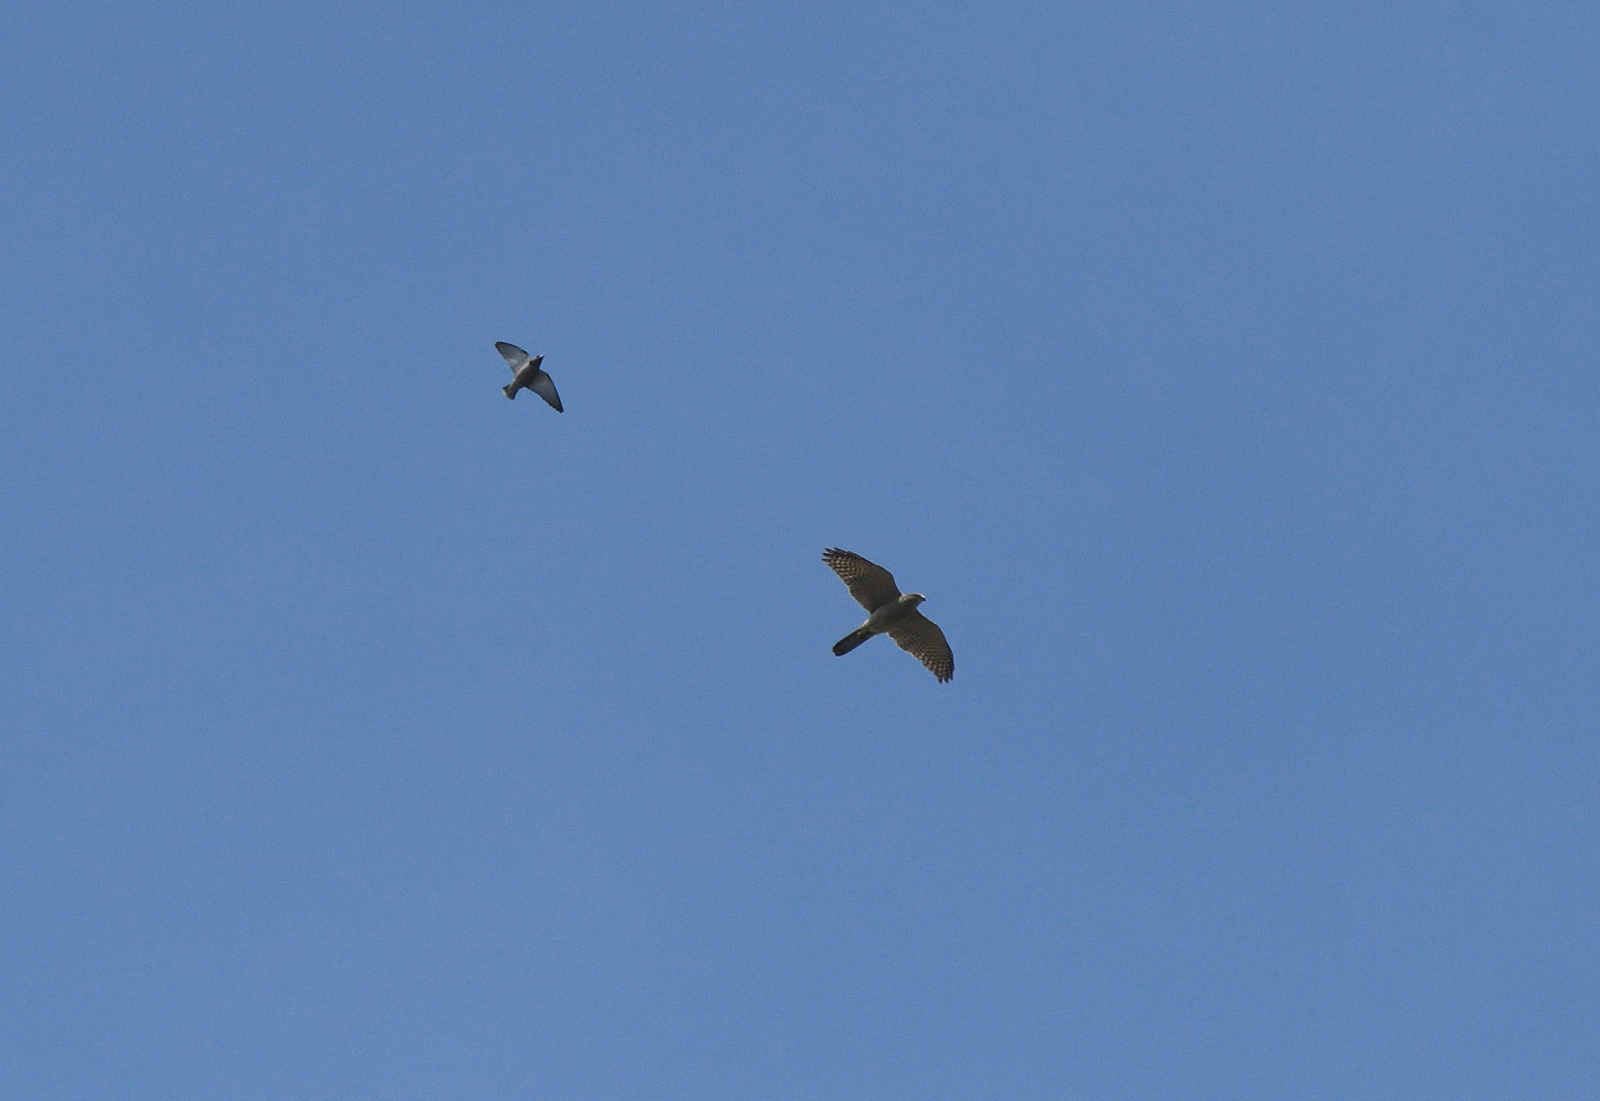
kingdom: Animalia
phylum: Chordata
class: Aves
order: Accipitriformes
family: Accipitridae
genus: Accipiter
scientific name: Accipiter badius
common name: Shikra
